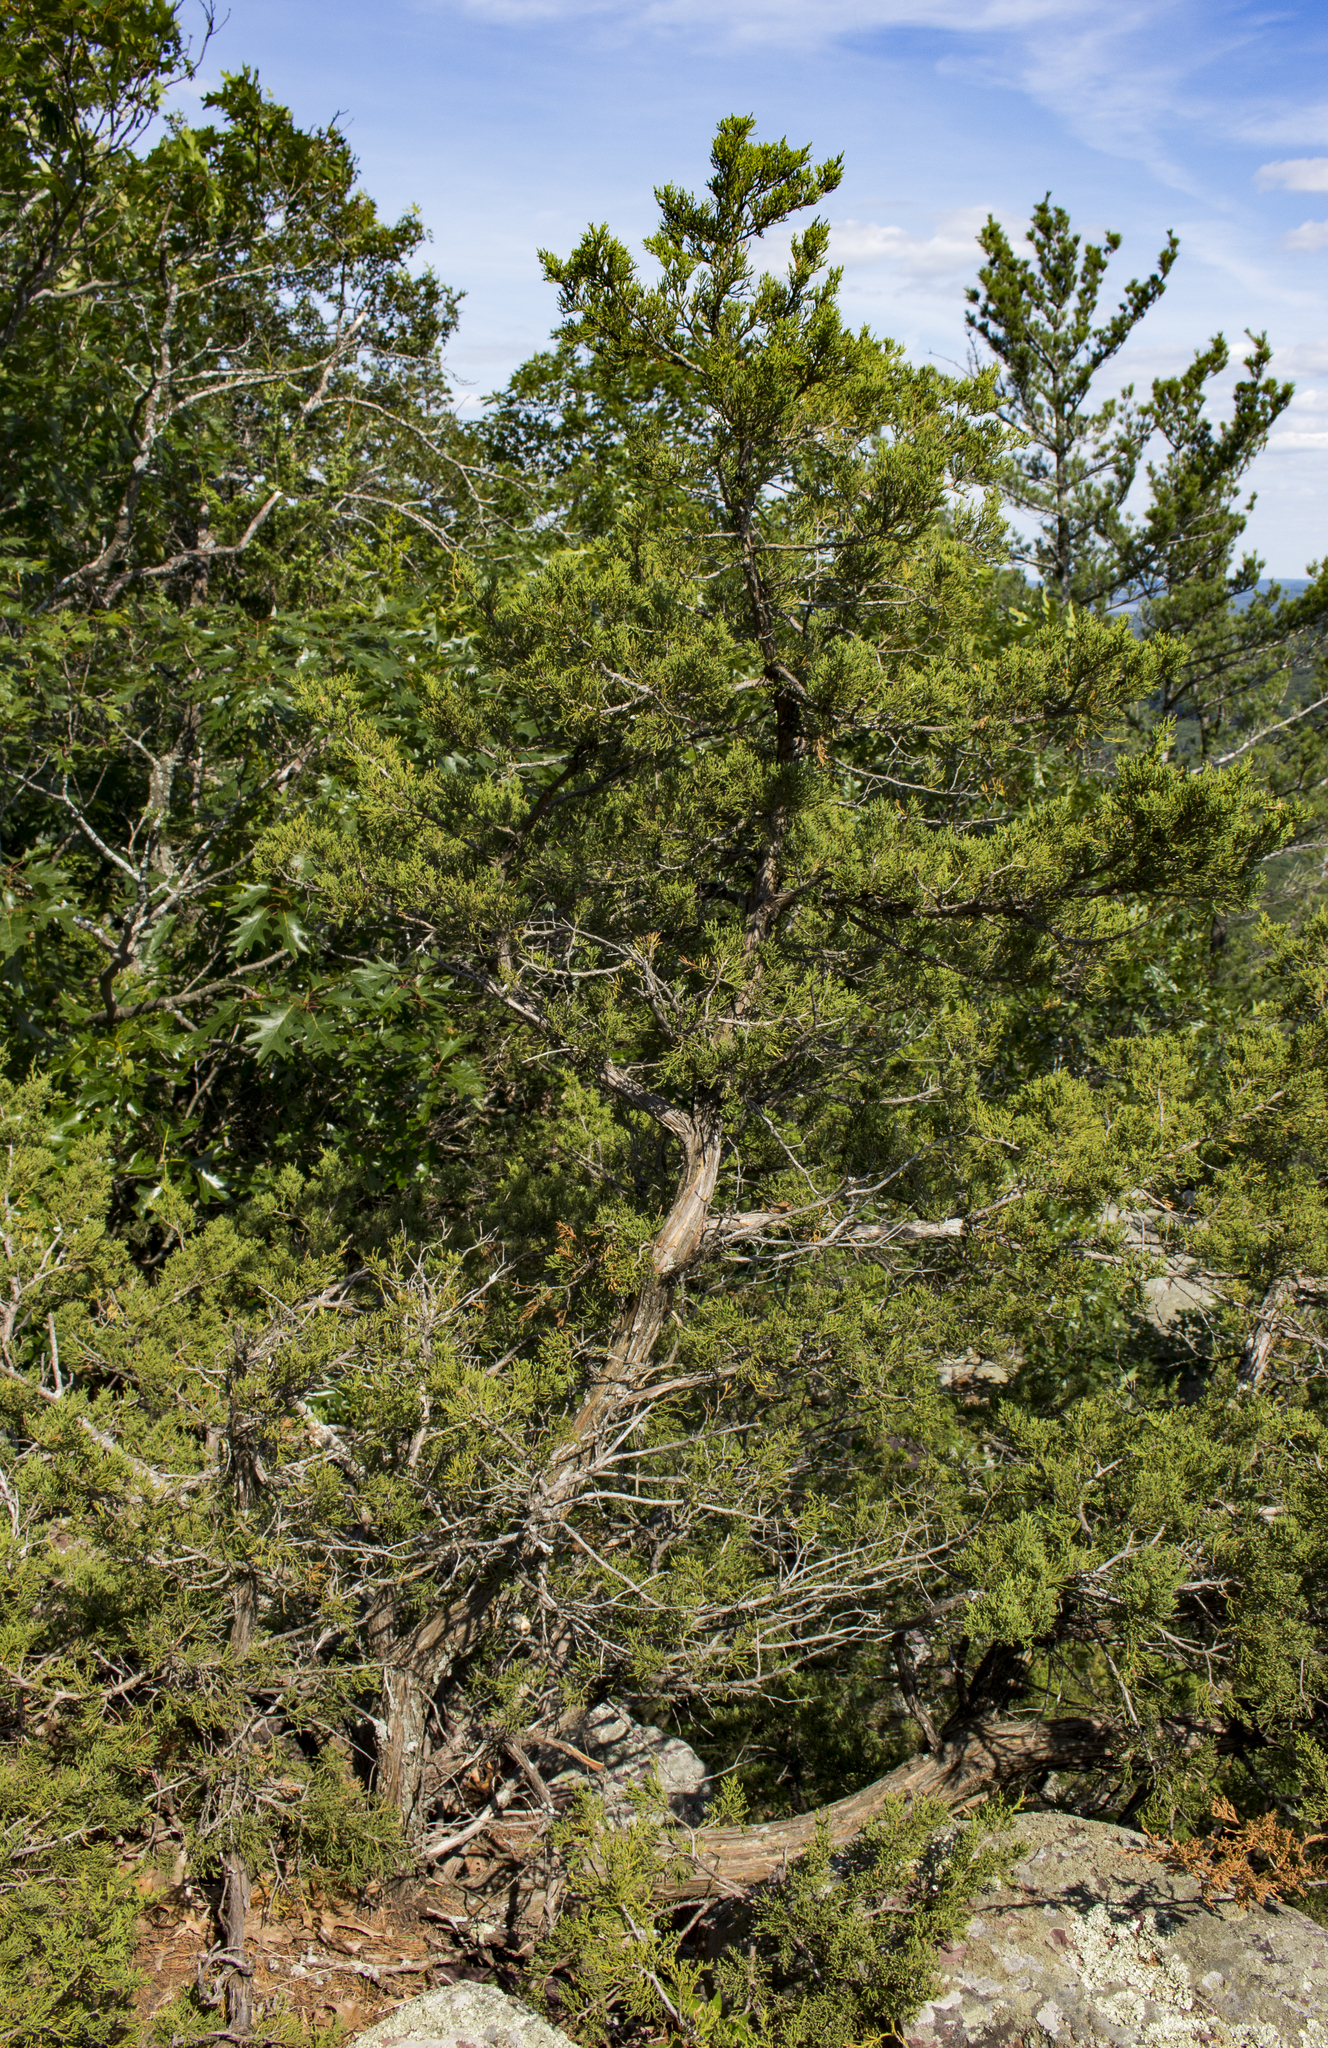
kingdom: Plantae
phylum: Tracheophyta
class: Pinopsida
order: Pinales
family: Cupressaceae
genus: Juniperus
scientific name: Juniperus virginiana
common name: Red juniper
